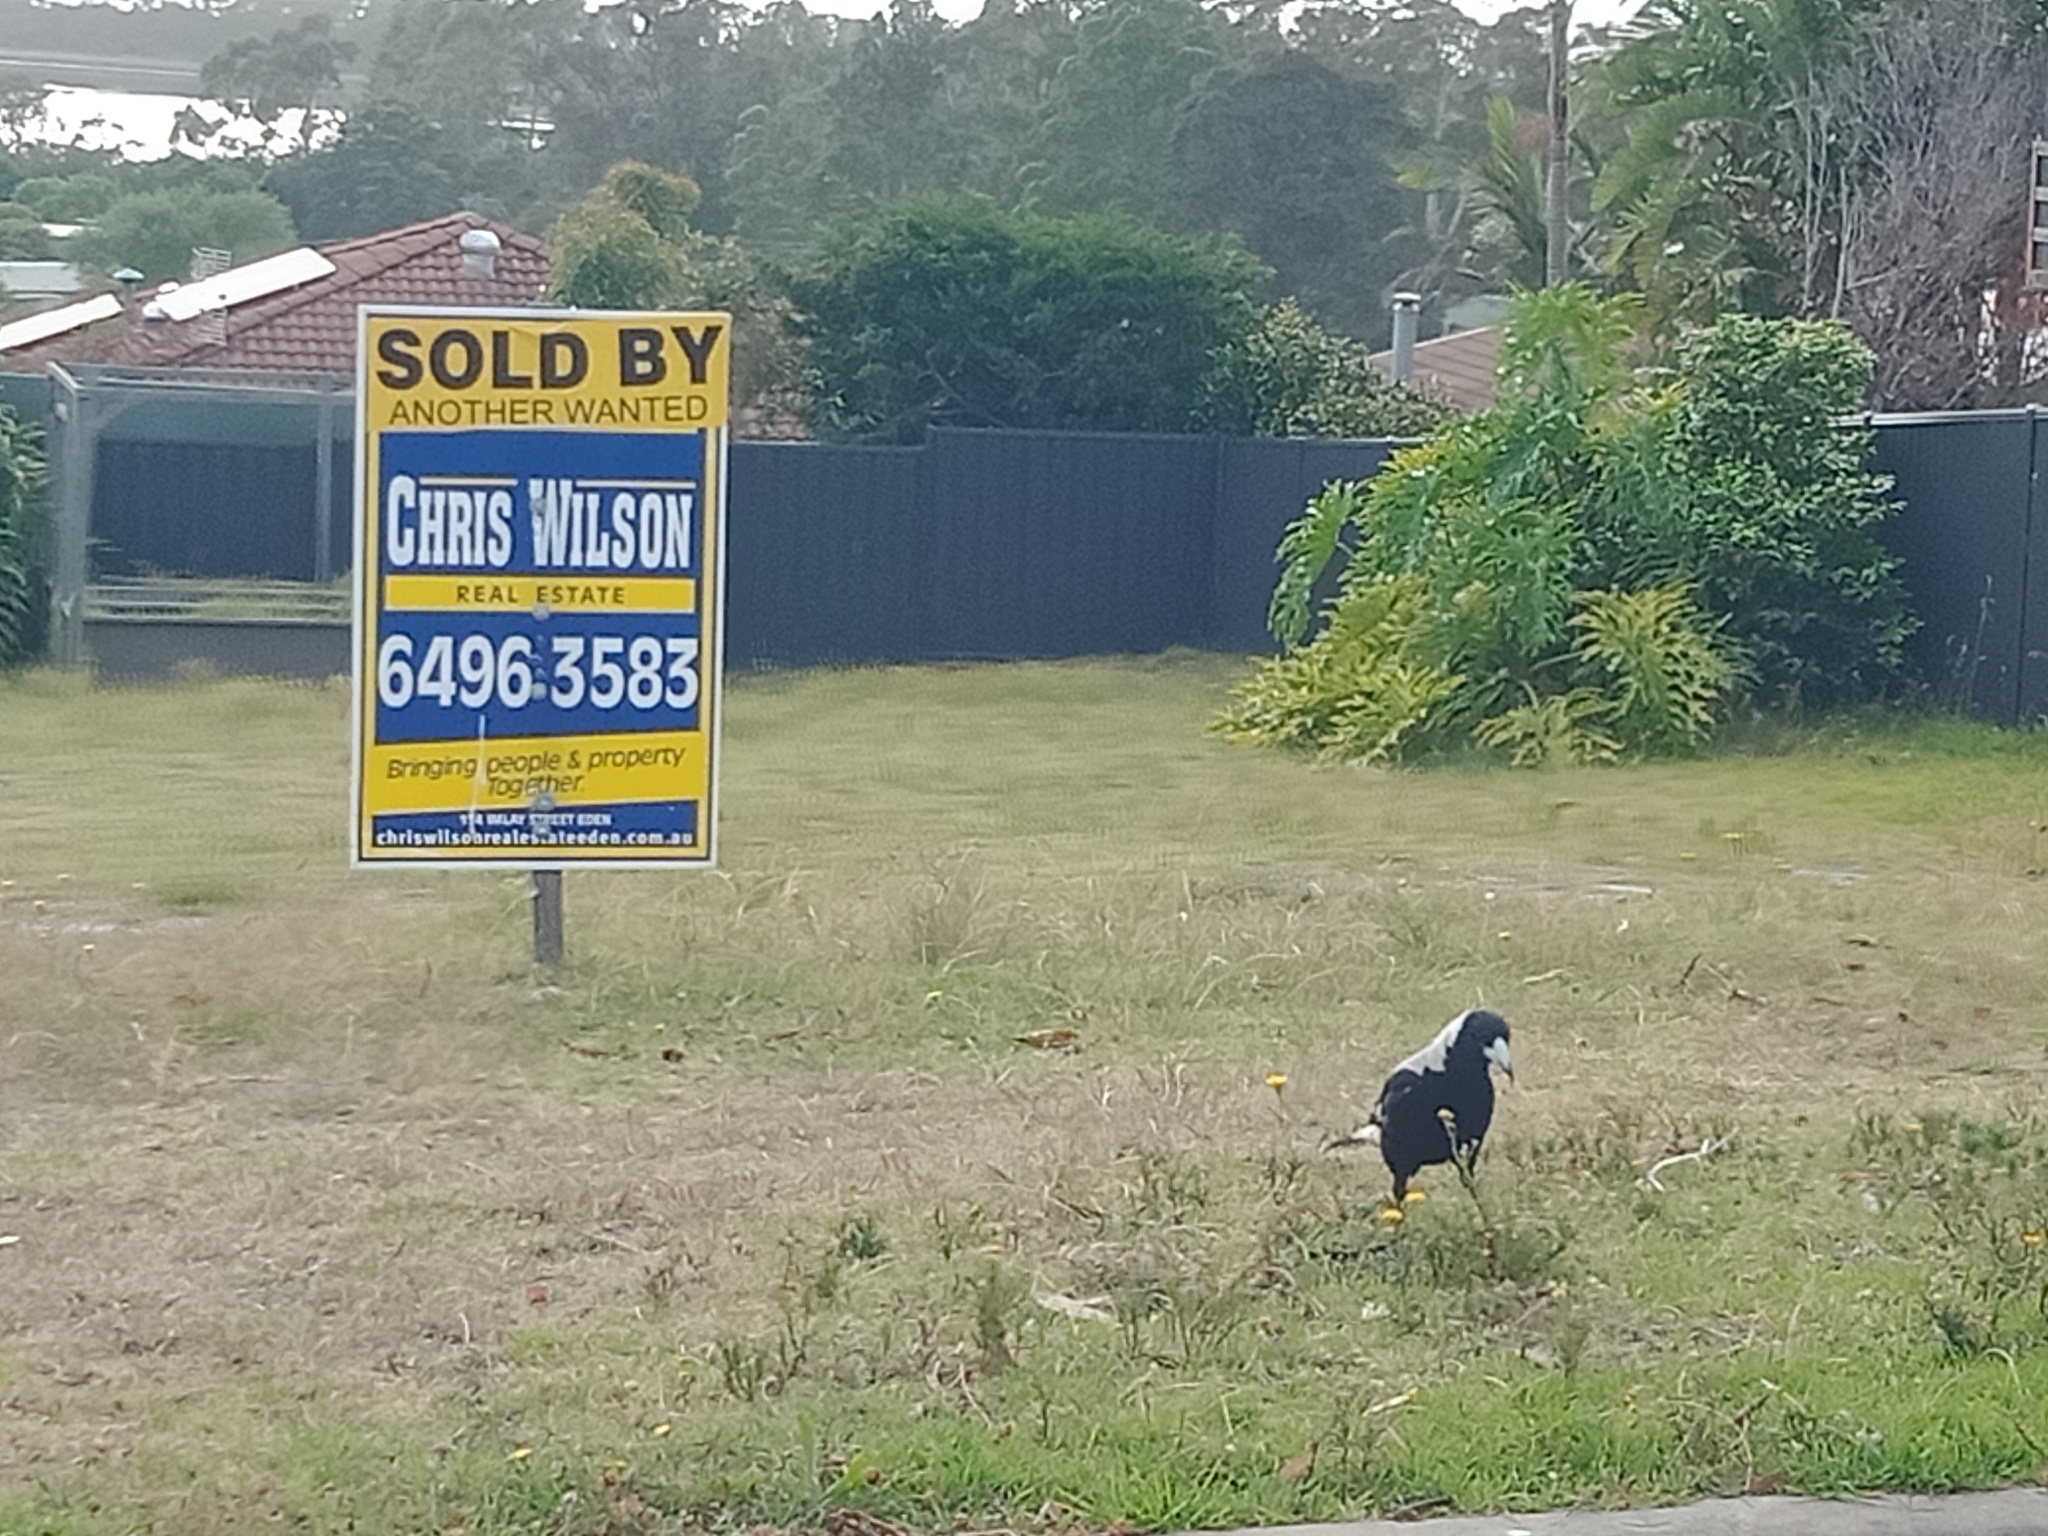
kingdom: Animalia
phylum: Chordata
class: Aves
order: Passeriformes
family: Cracticidae
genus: Gymnorhina
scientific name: Gymnorhina tibicen
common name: Australian magpie
